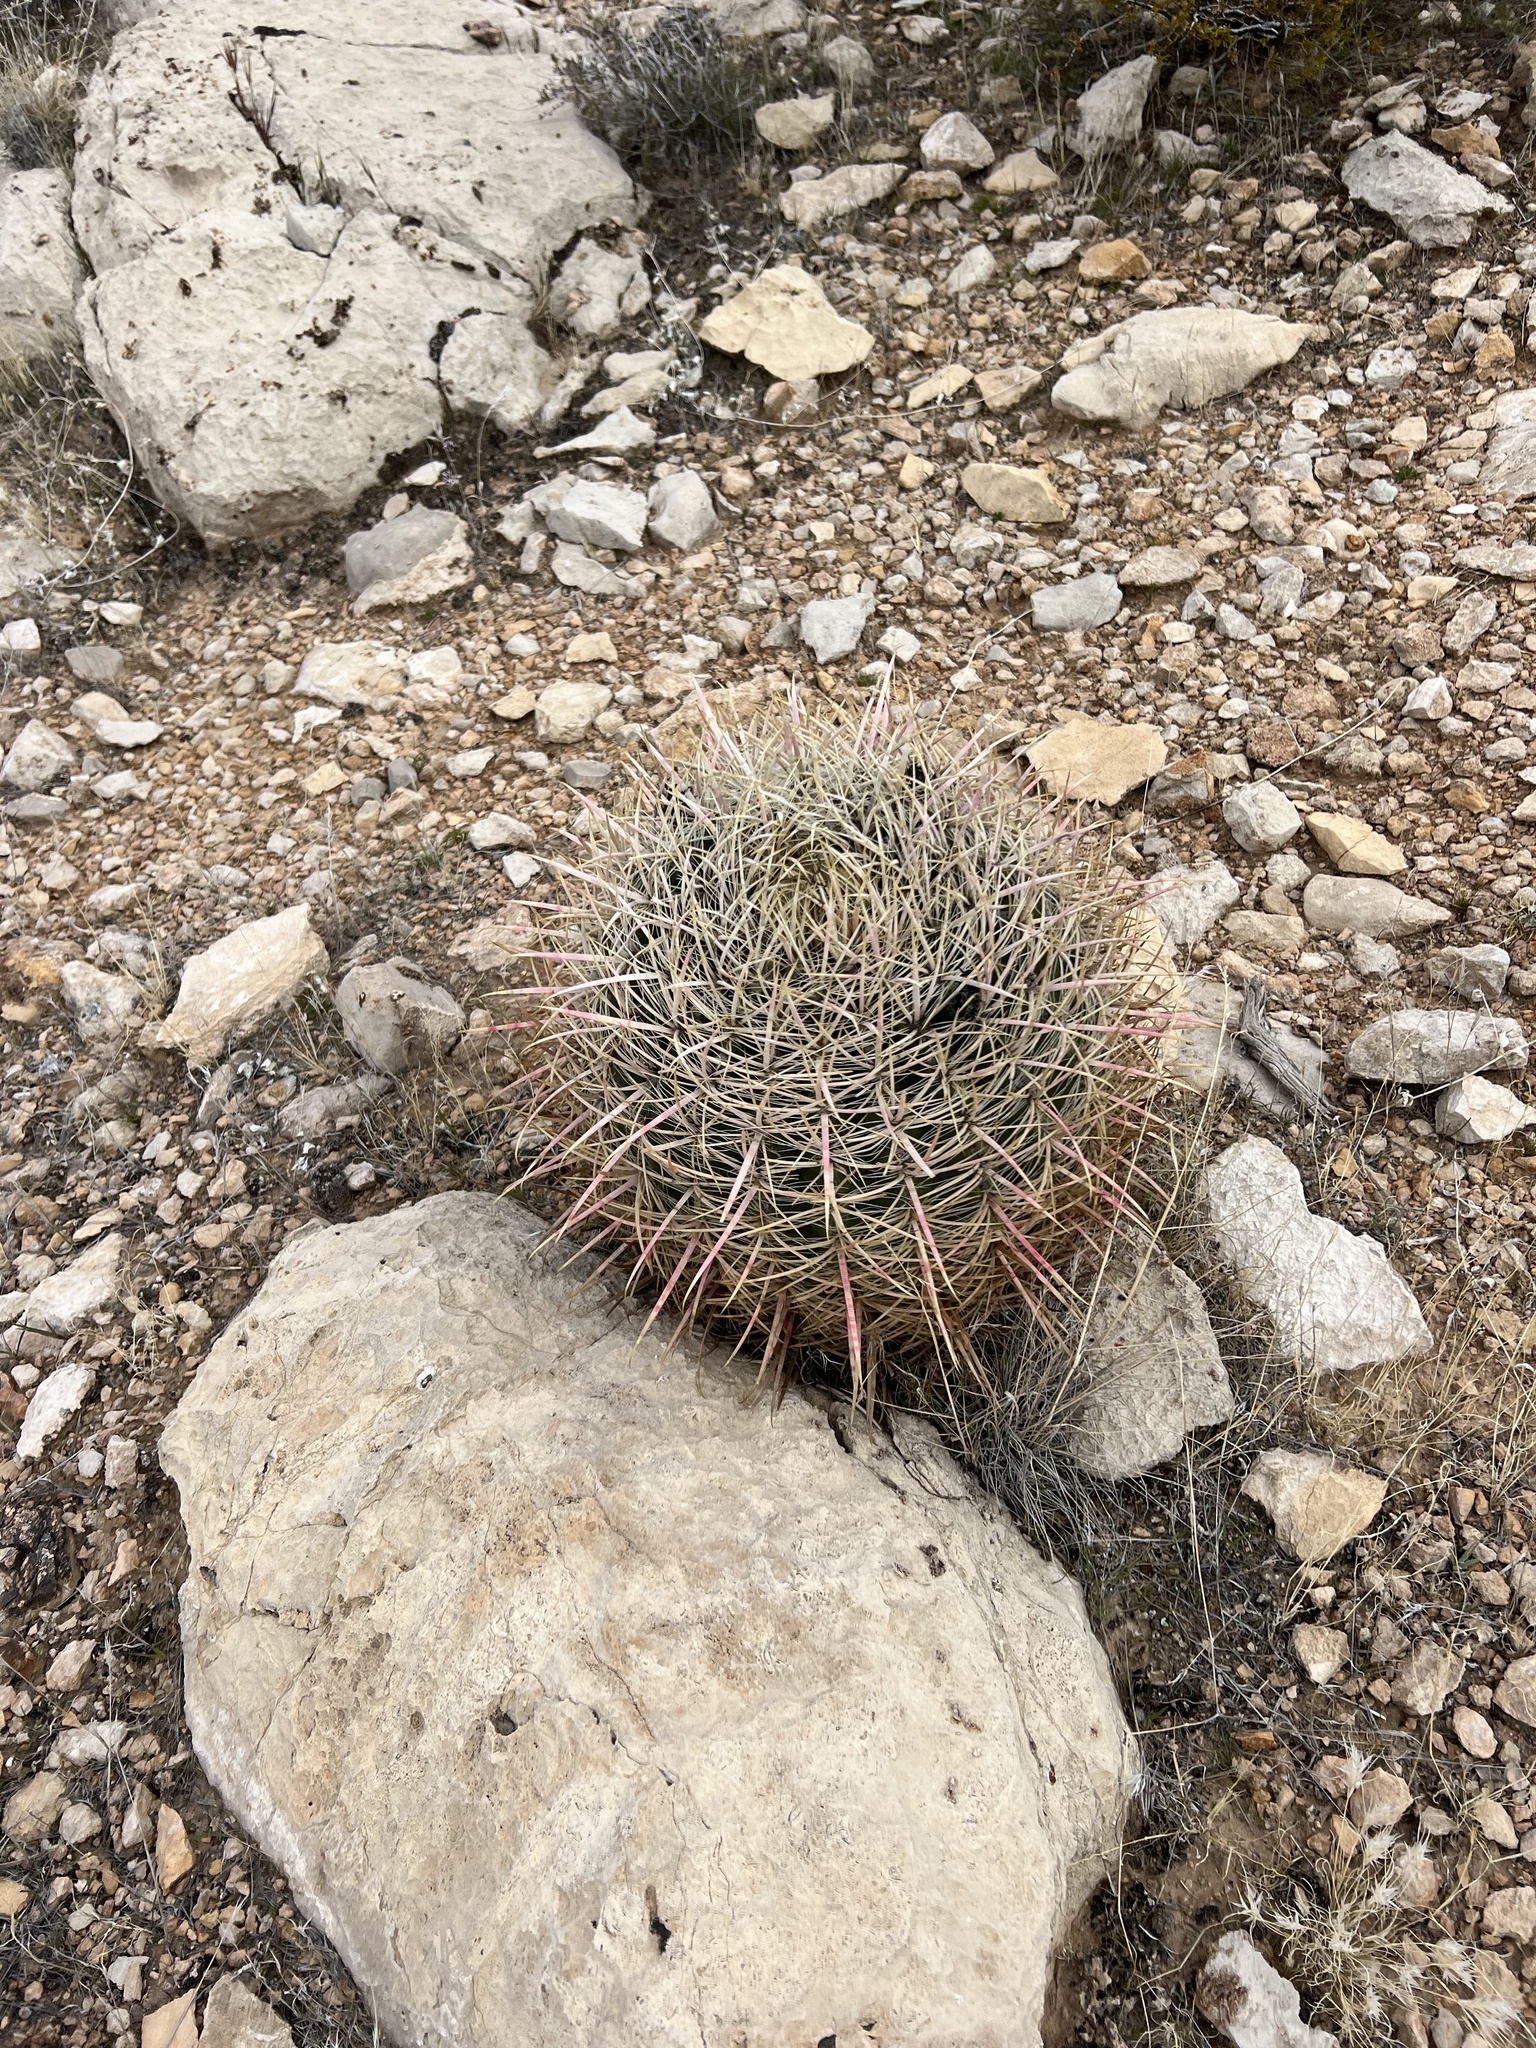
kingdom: Plantae
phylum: Tracheophyta
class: Magnoliopsida
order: Caryophyllales
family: Cactaceae
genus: Ferocactus
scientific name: Ferocactus cylindraceus
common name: California barrel cactus
